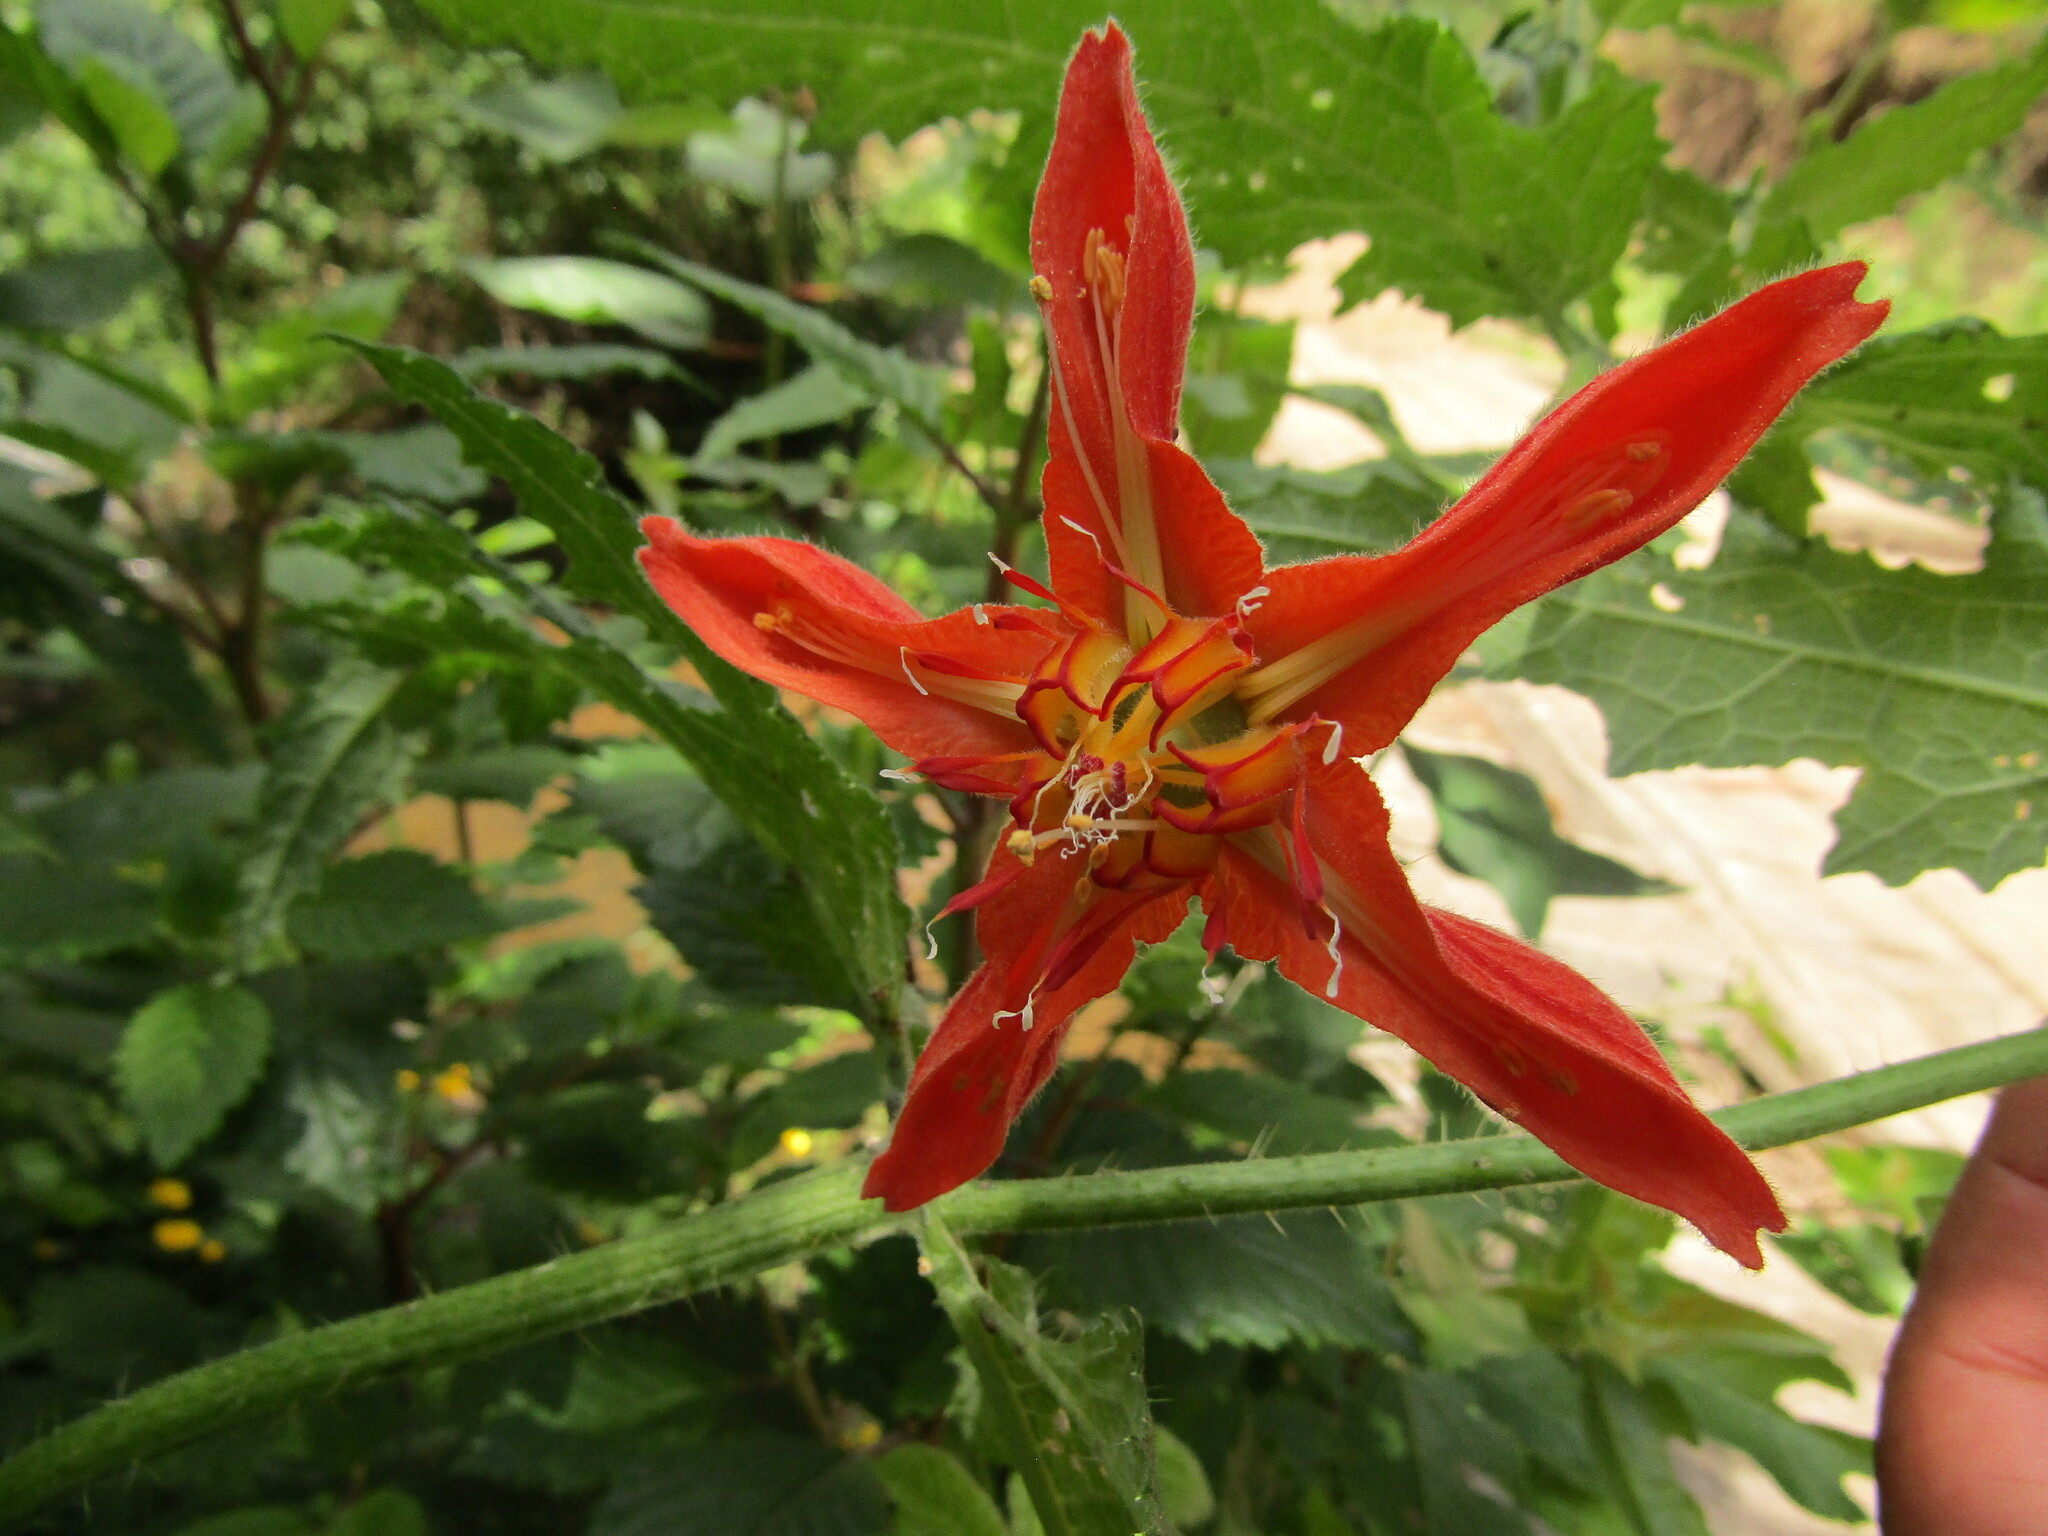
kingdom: Plantae
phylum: Tracheophyta
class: Magnoliopsida
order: Cornales
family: Loasaceae
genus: Loasa
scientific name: Loasa acanthifolia
